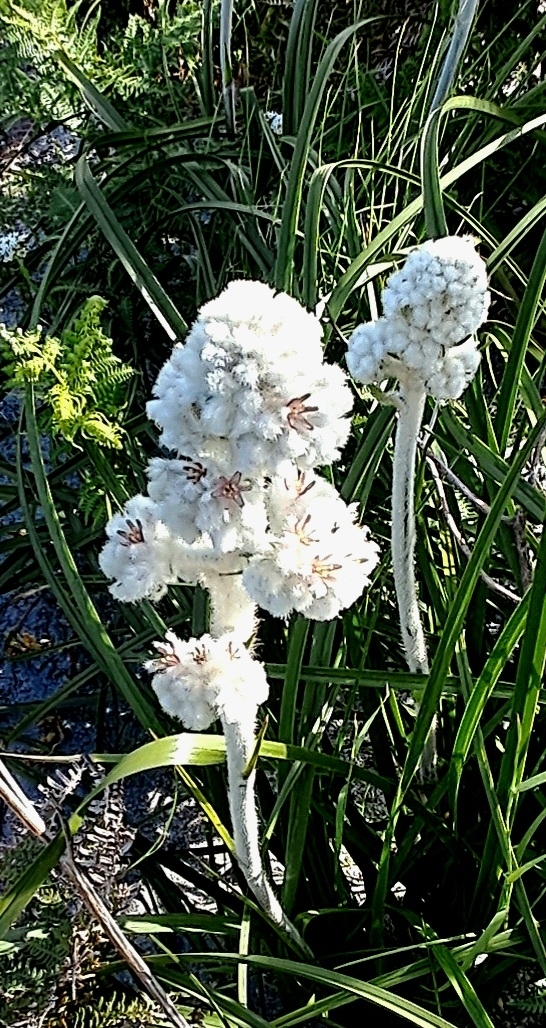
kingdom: Plantae
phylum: Tracheophyta
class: Liliopsida
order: Asparagales
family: Lanariaceae
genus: Lanaria
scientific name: Lanaria lanata
